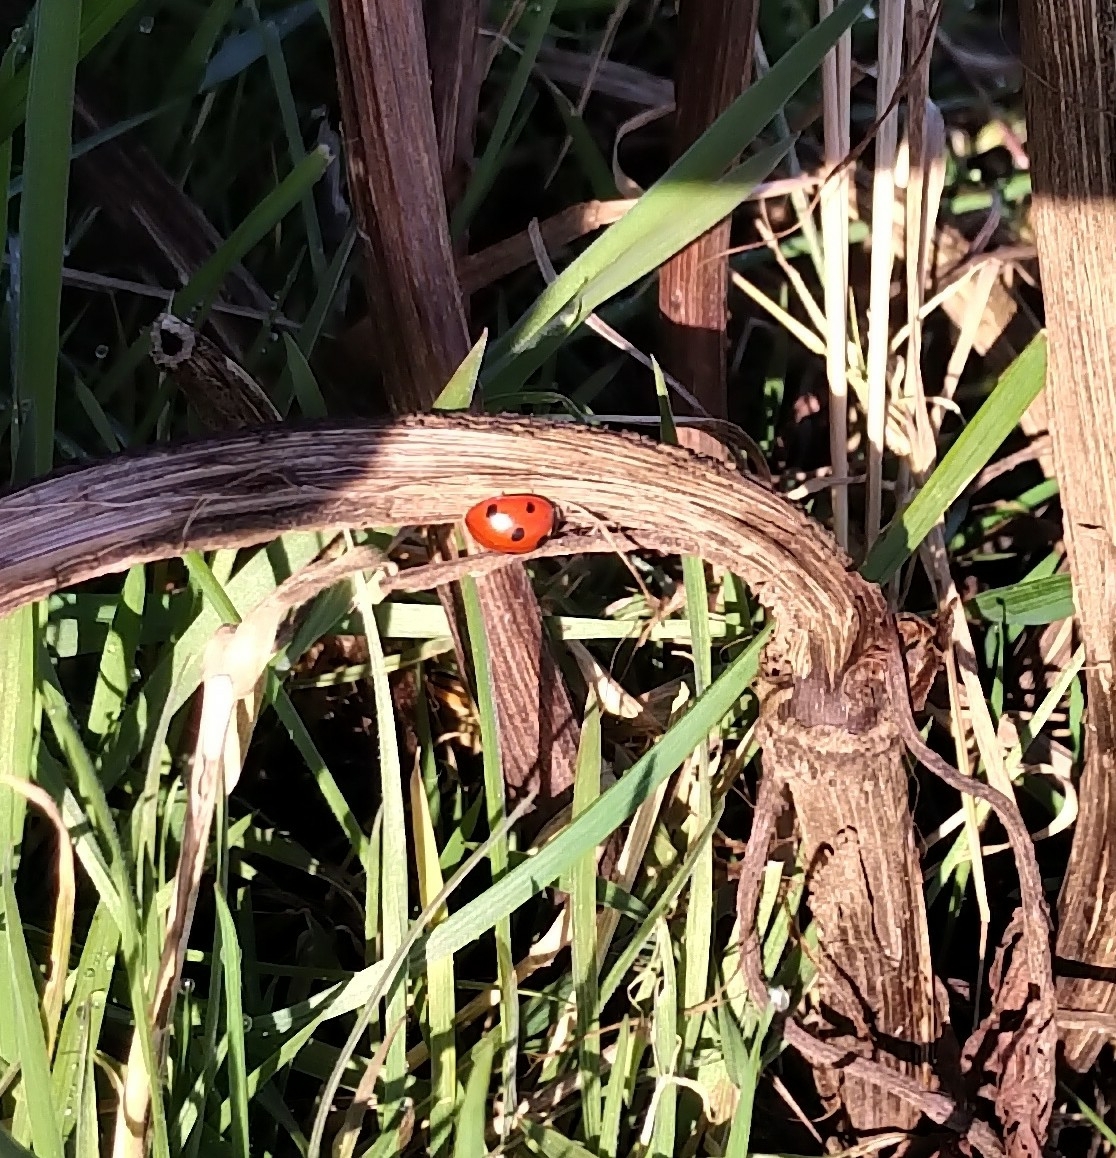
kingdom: Animalia
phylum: Arthropoda
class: Insecta
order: Coleoptera
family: Coccinellidae
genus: Coccinella
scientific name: Coccinella septempunctata
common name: Sevenspotted lady beetle
